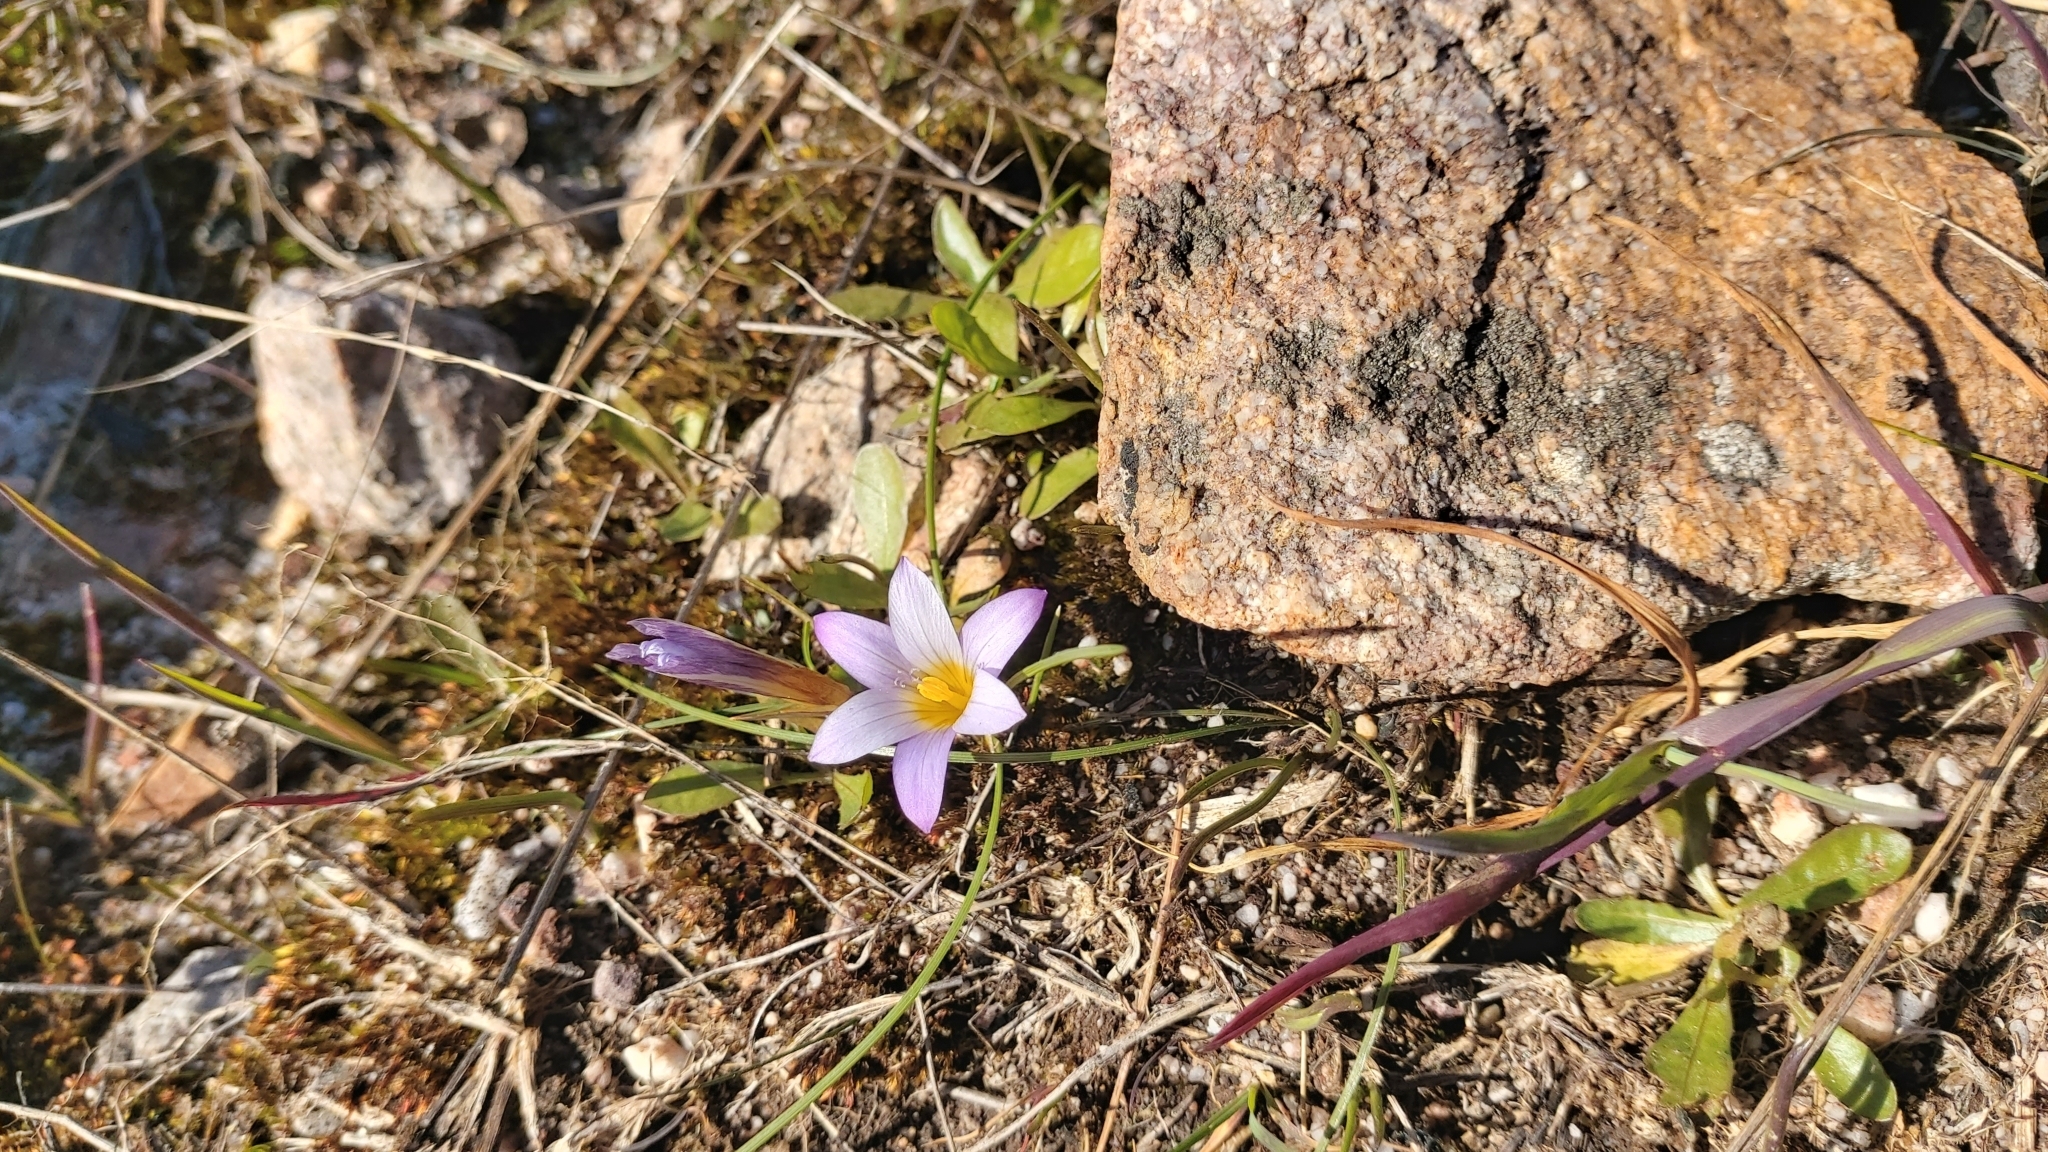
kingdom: Plantae
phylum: Tracheophyta
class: Liliopsida
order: Asparagales
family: Iridaceae
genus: Romulea
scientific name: Romulea bulbocodium
